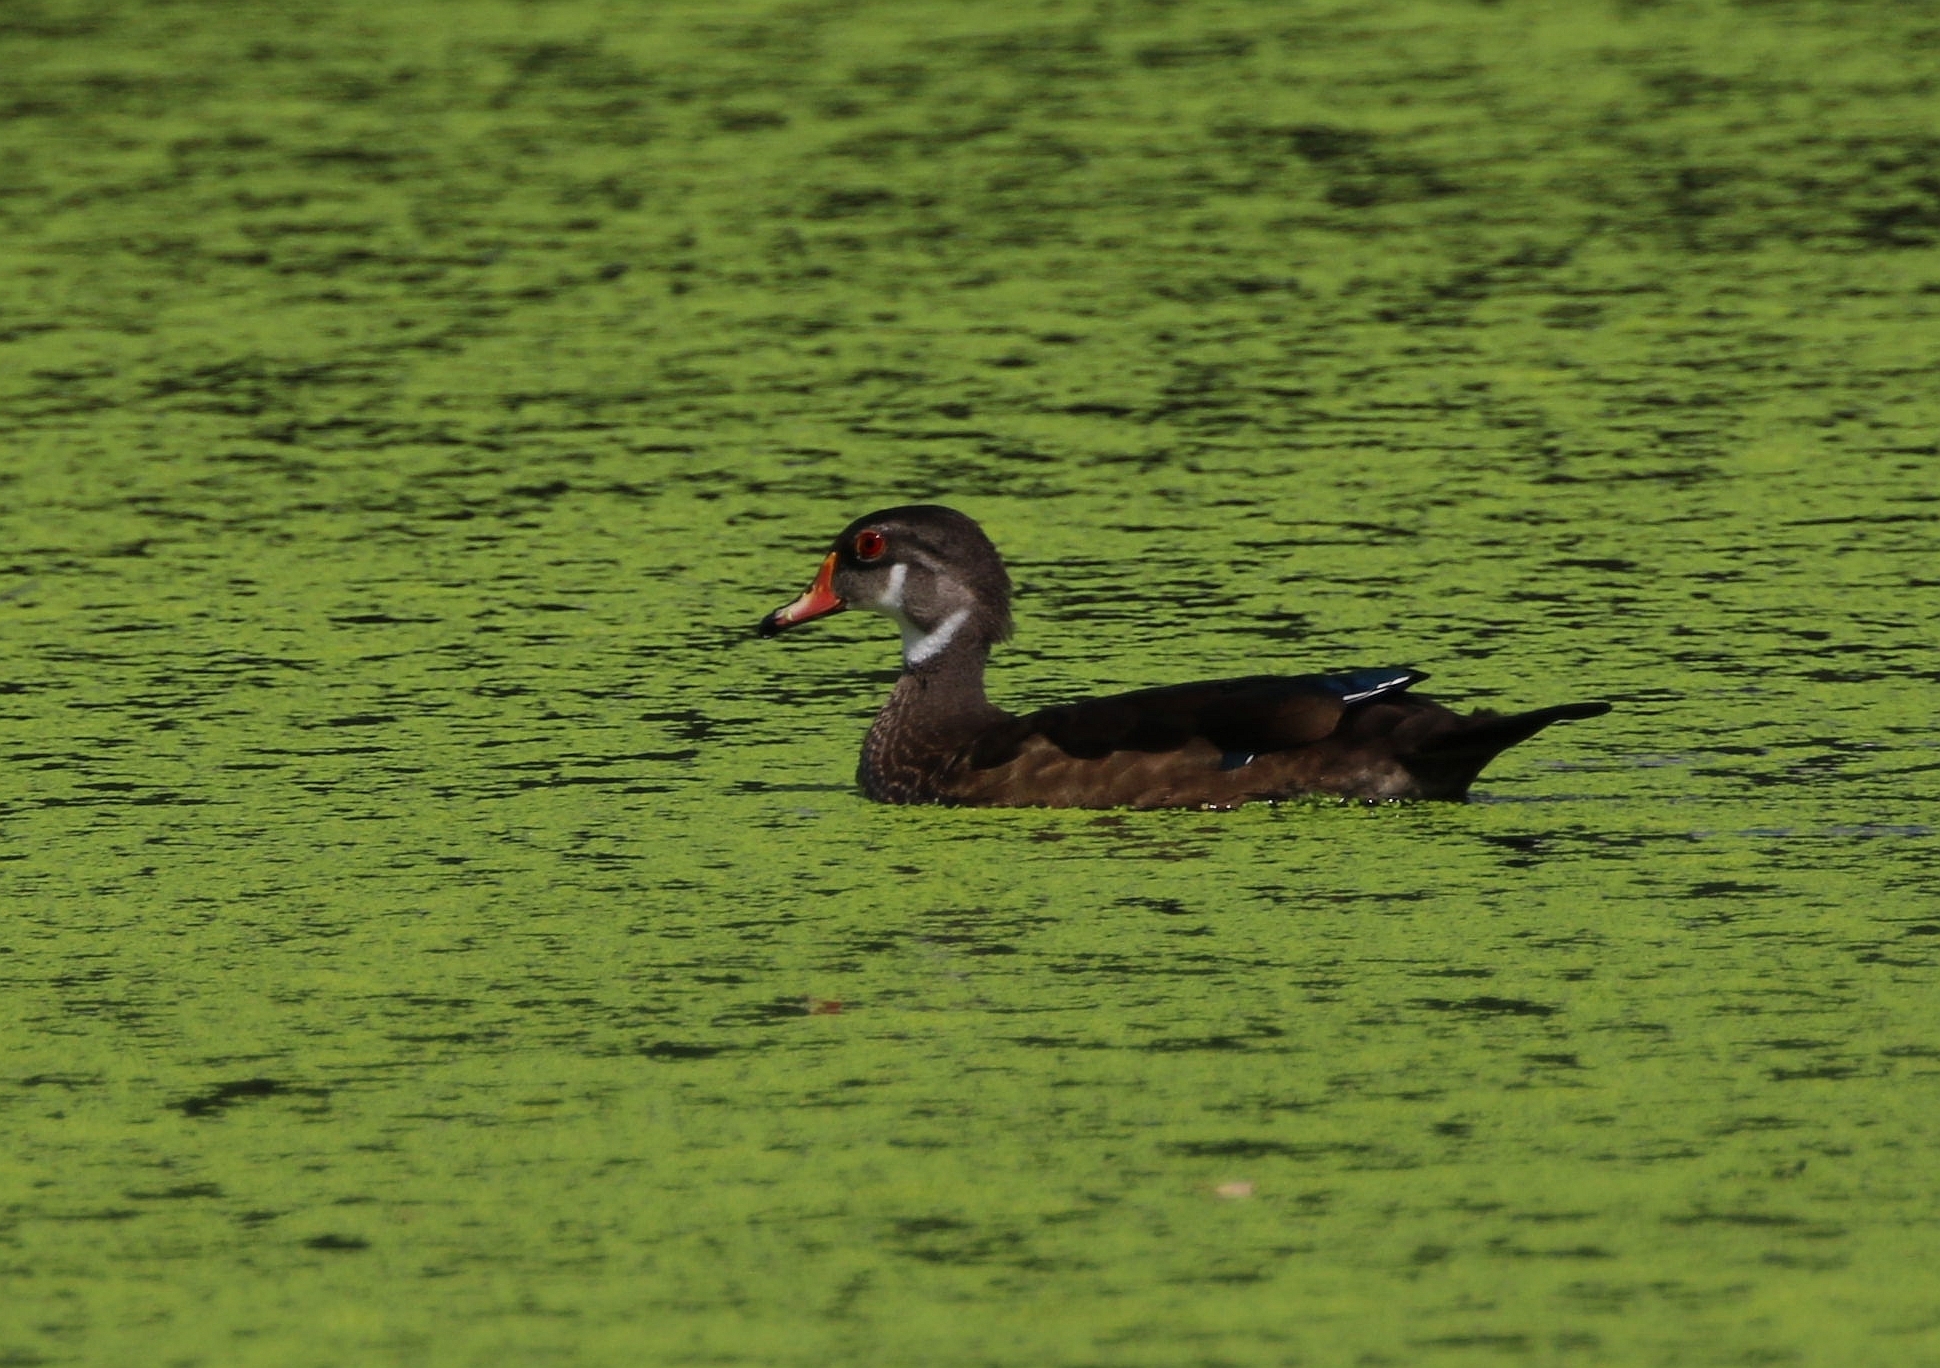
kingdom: Animalia
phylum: Chordata
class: Aves
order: Anseriformes
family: Anatidae
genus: Aix
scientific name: Aix sponsa
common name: Wood duck
